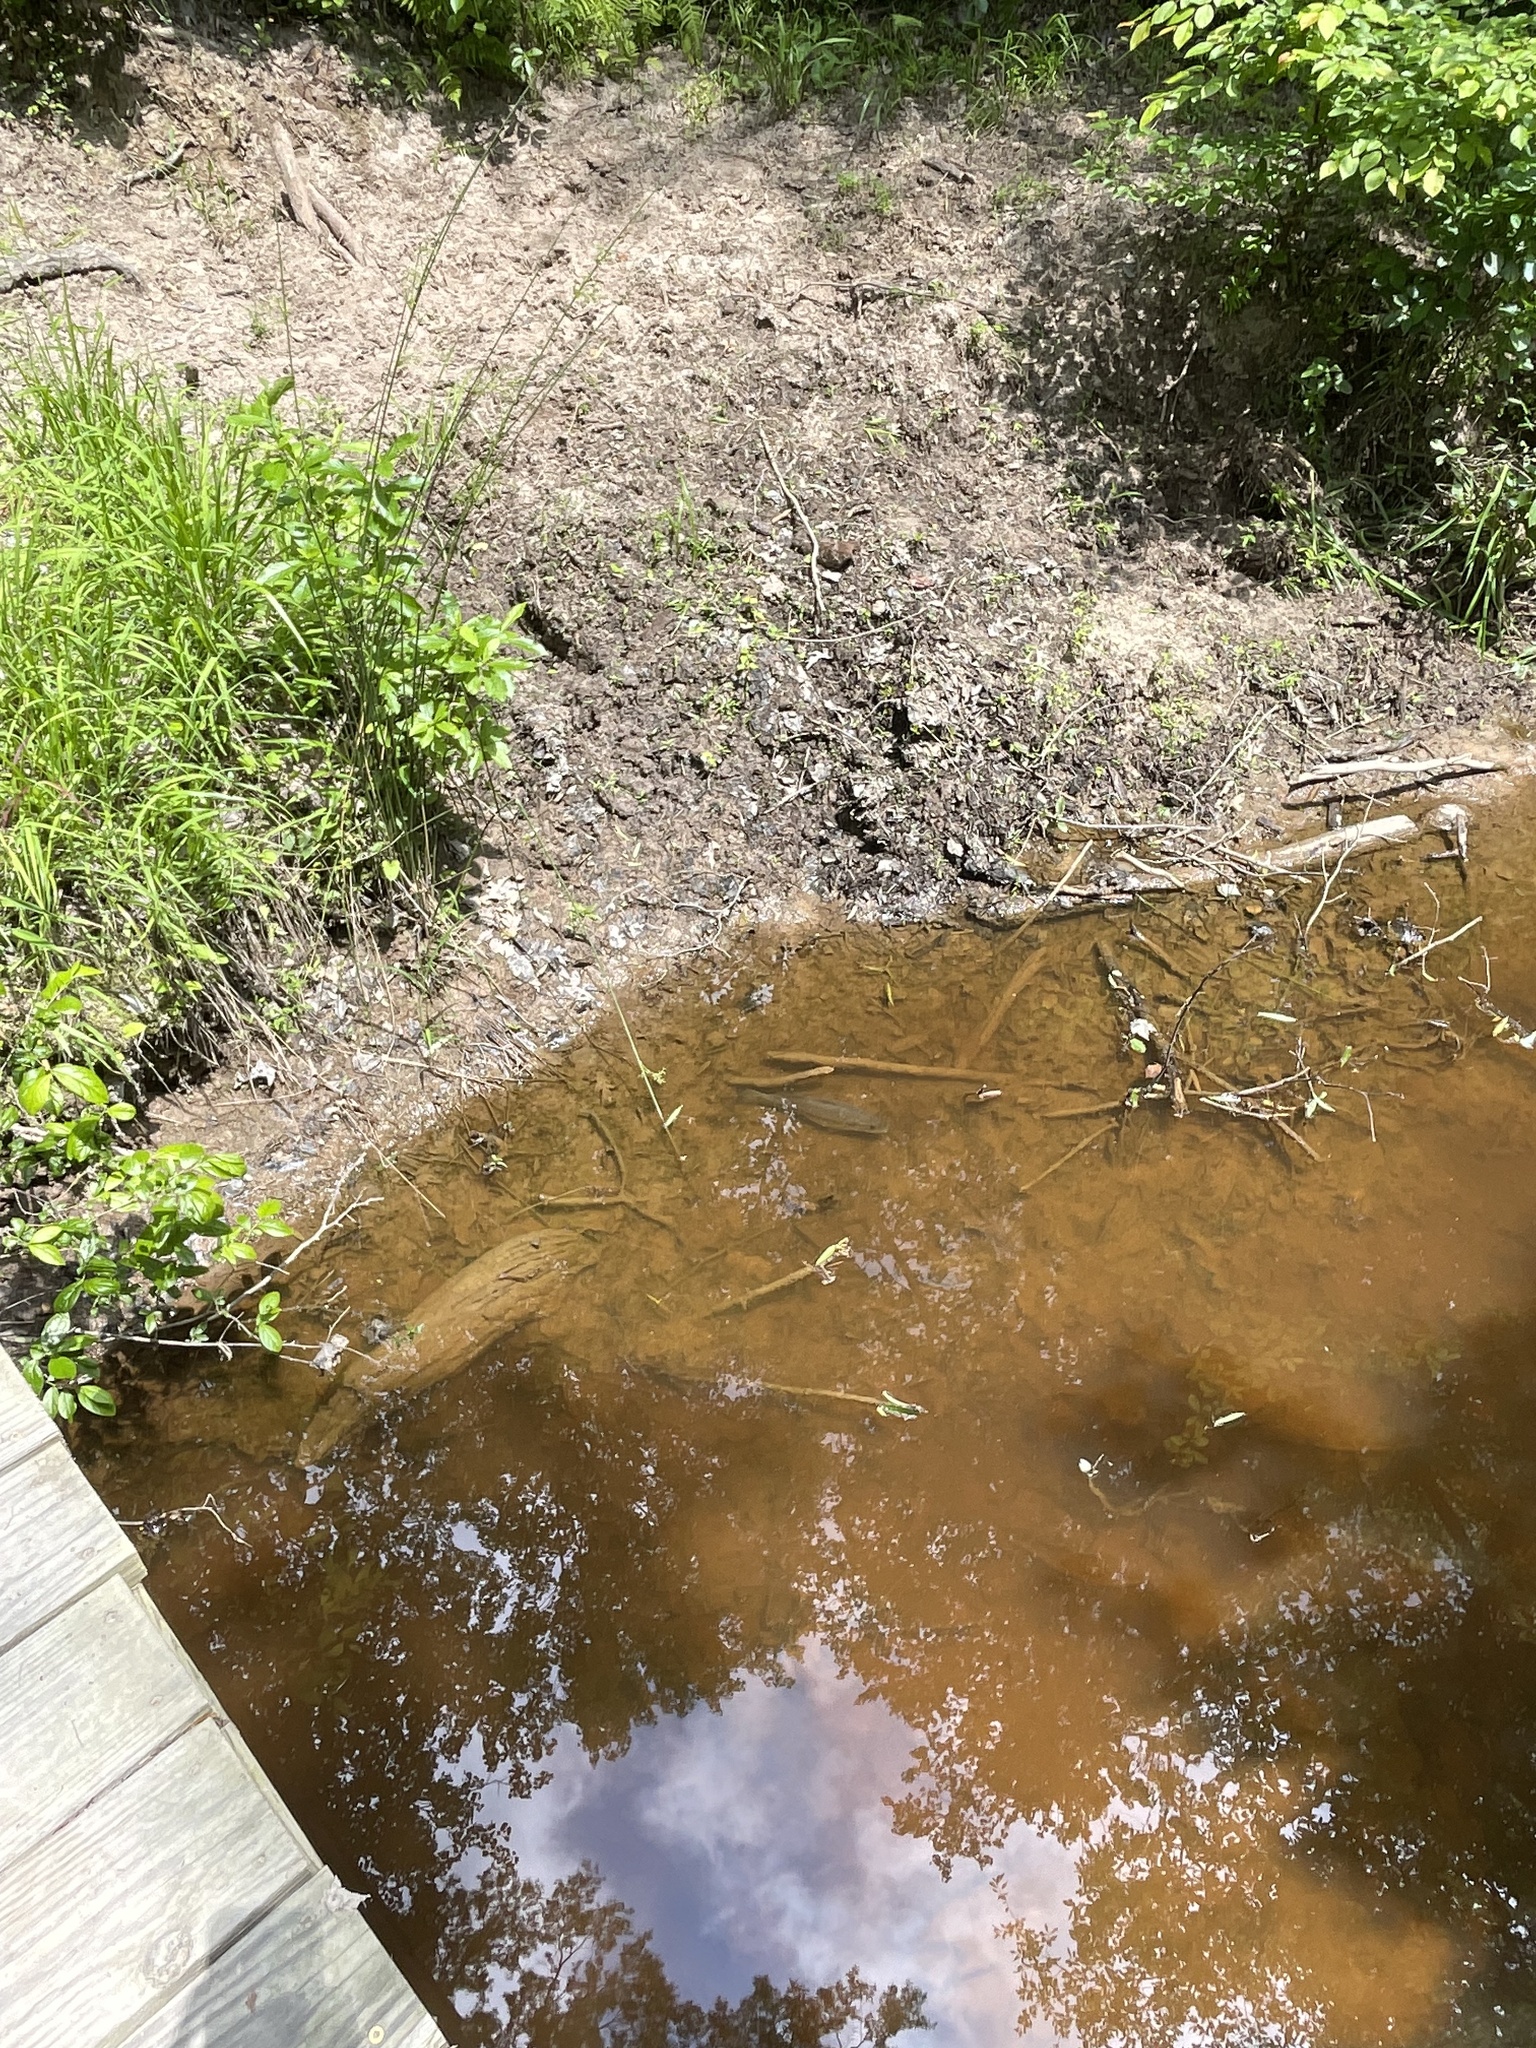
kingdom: Animalia
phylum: Chordata
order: Perciformes
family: Centrarchidae
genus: Micropterus
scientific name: Micropterus
